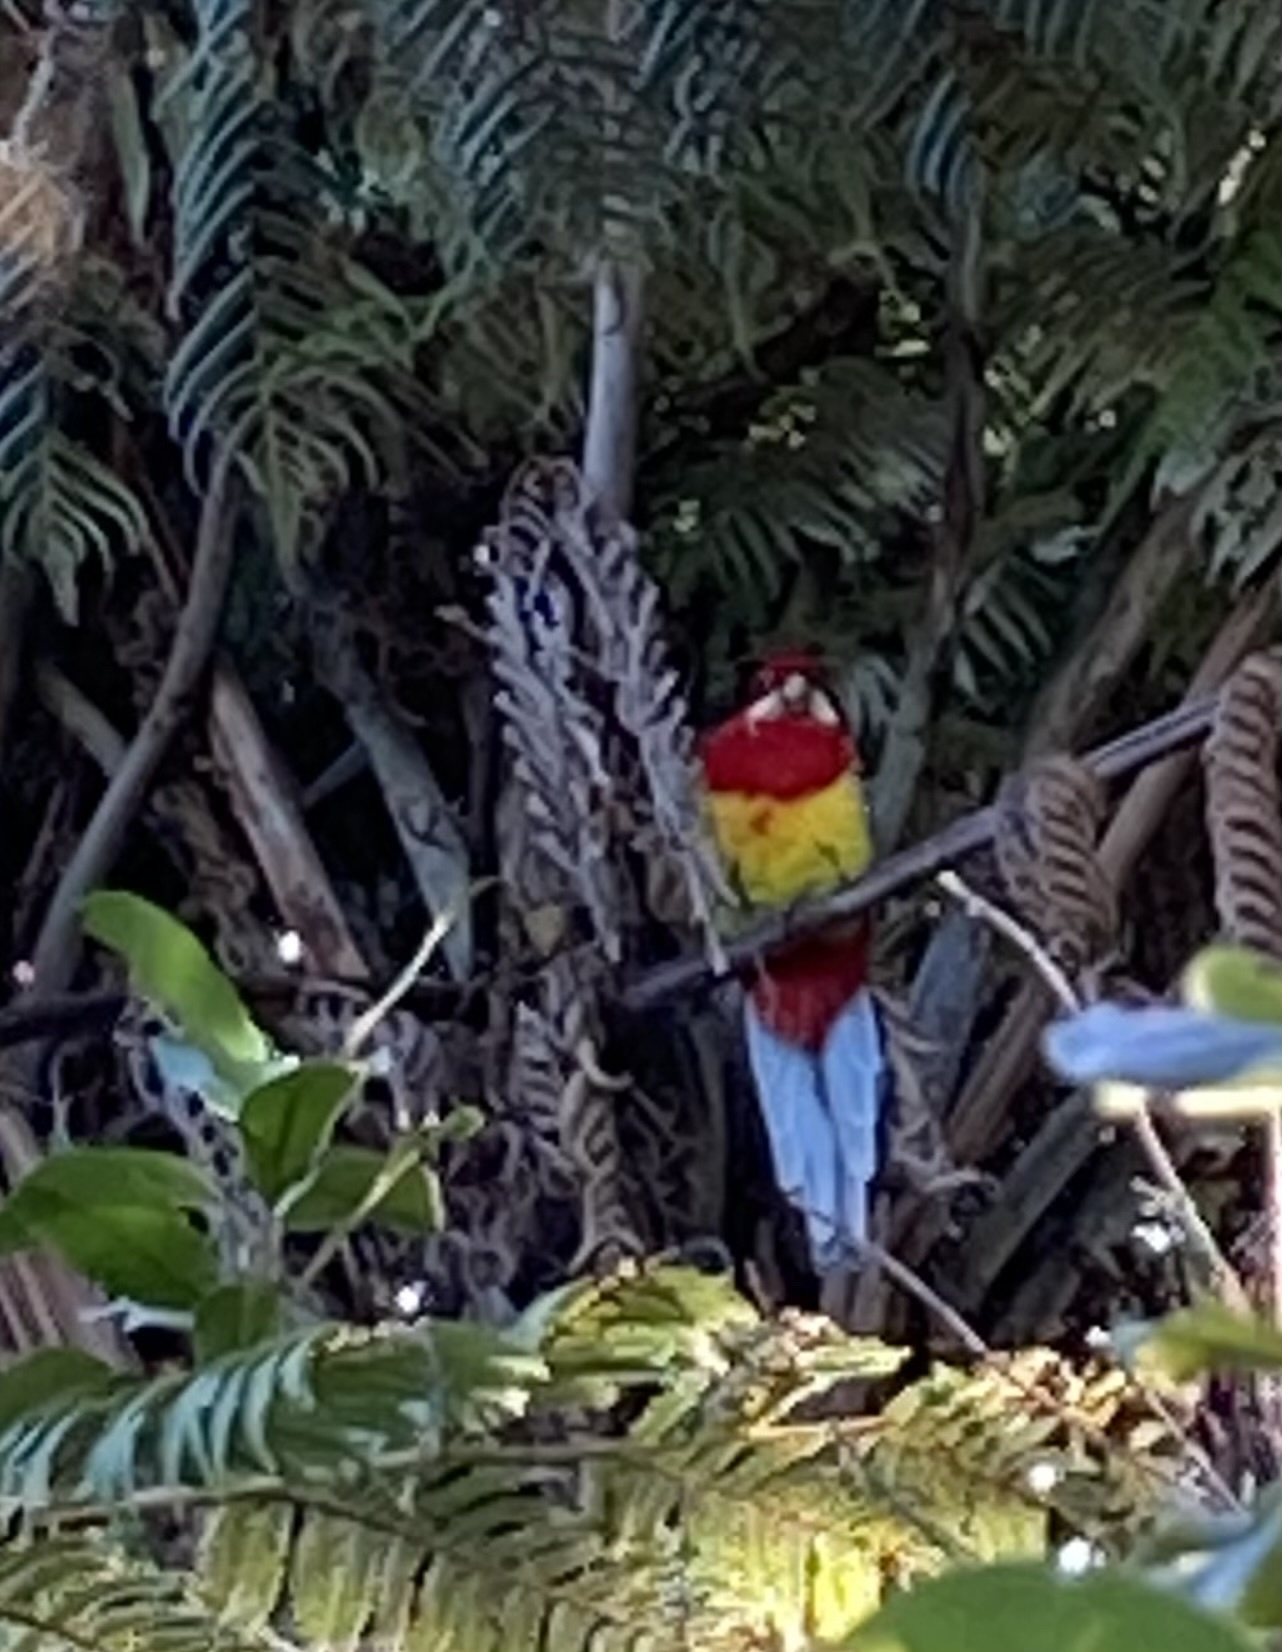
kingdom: Animalia
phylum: Chordata
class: Aves
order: Psittaciformes
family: Psittacidae
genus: Platycercus
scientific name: Platycercus eximius
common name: Eastern rosella
